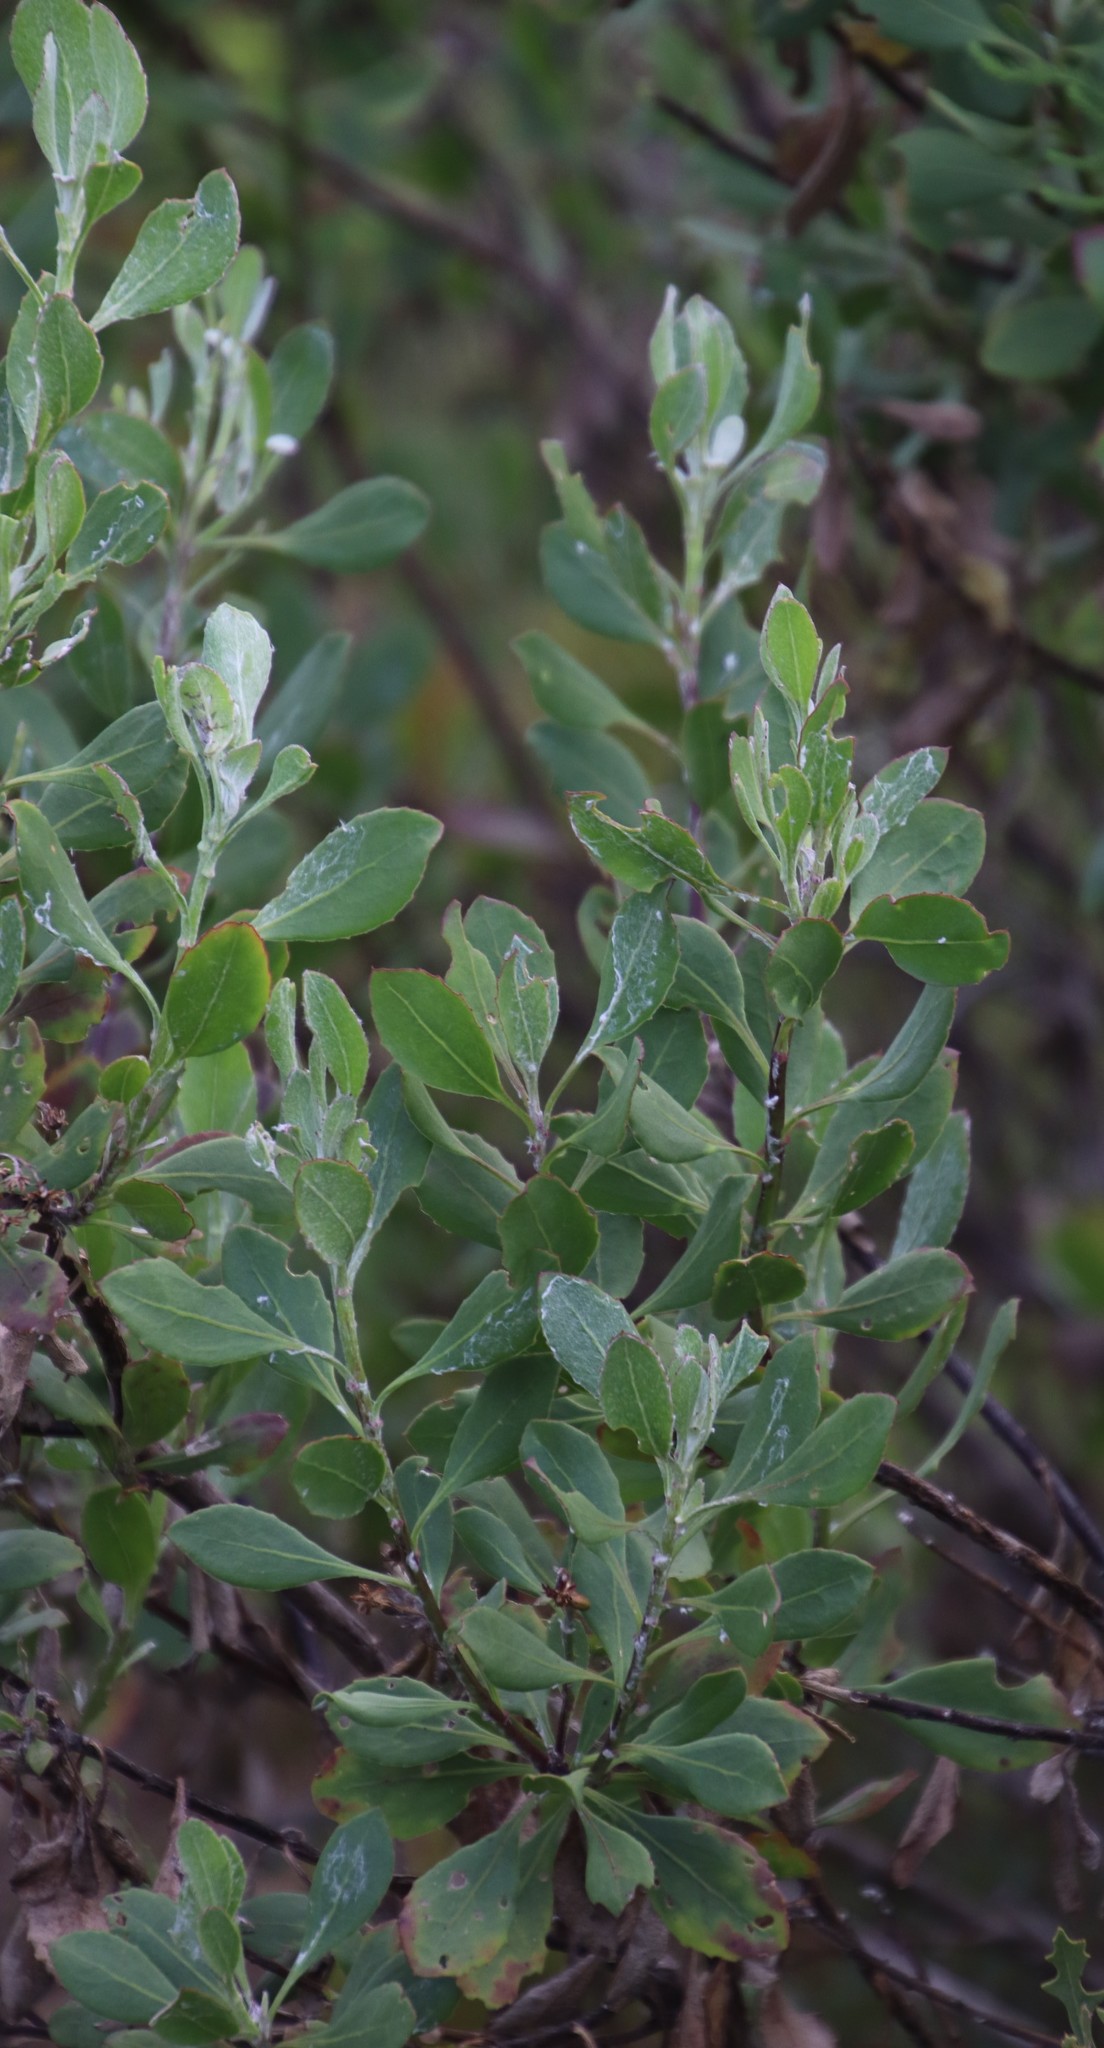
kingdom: Plantae
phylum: Tracheophyta
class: Magnoliopsida
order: Asterales
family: Asteraceae
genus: Osteospermum
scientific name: Osteospermum moniliferum
